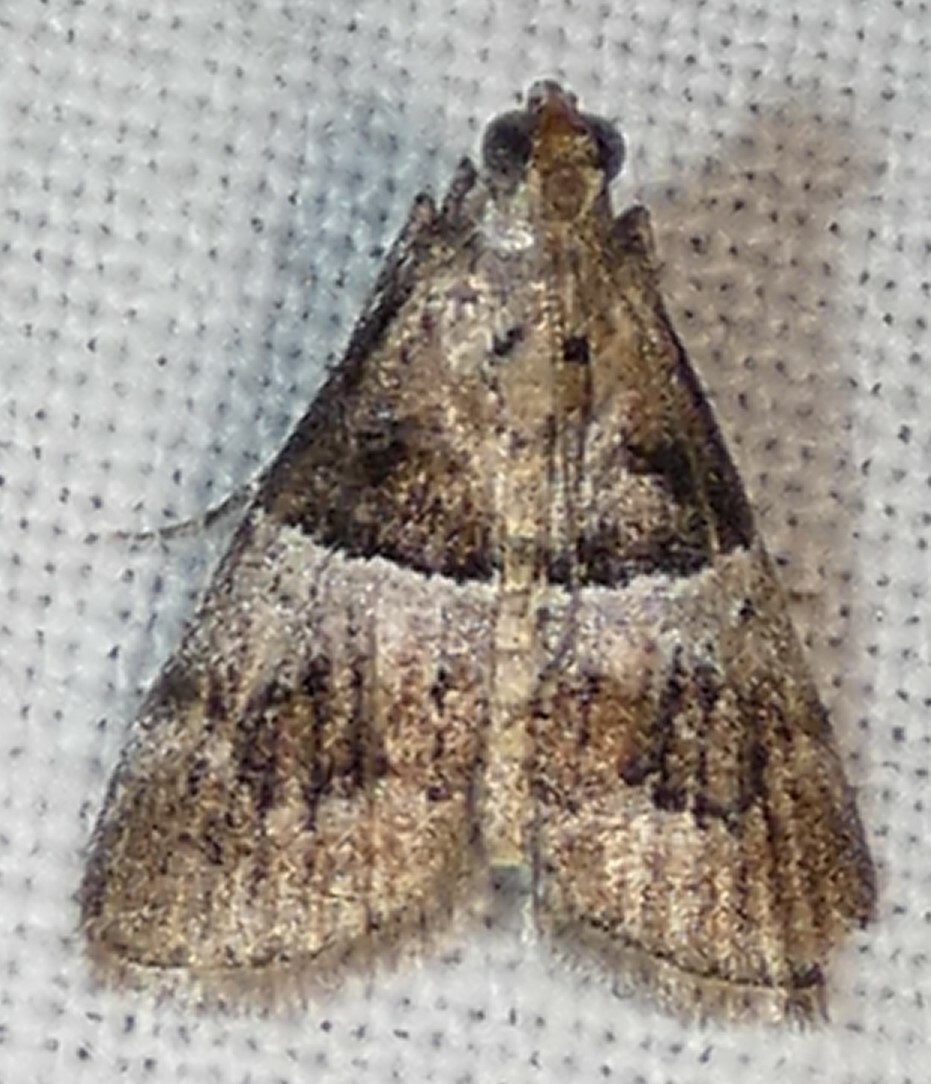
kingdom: Animalia
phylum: Arthropoda
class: Insecta
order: Lepidoptera
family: Pyralidae
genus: Pococera
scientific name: Pococera scortealis
